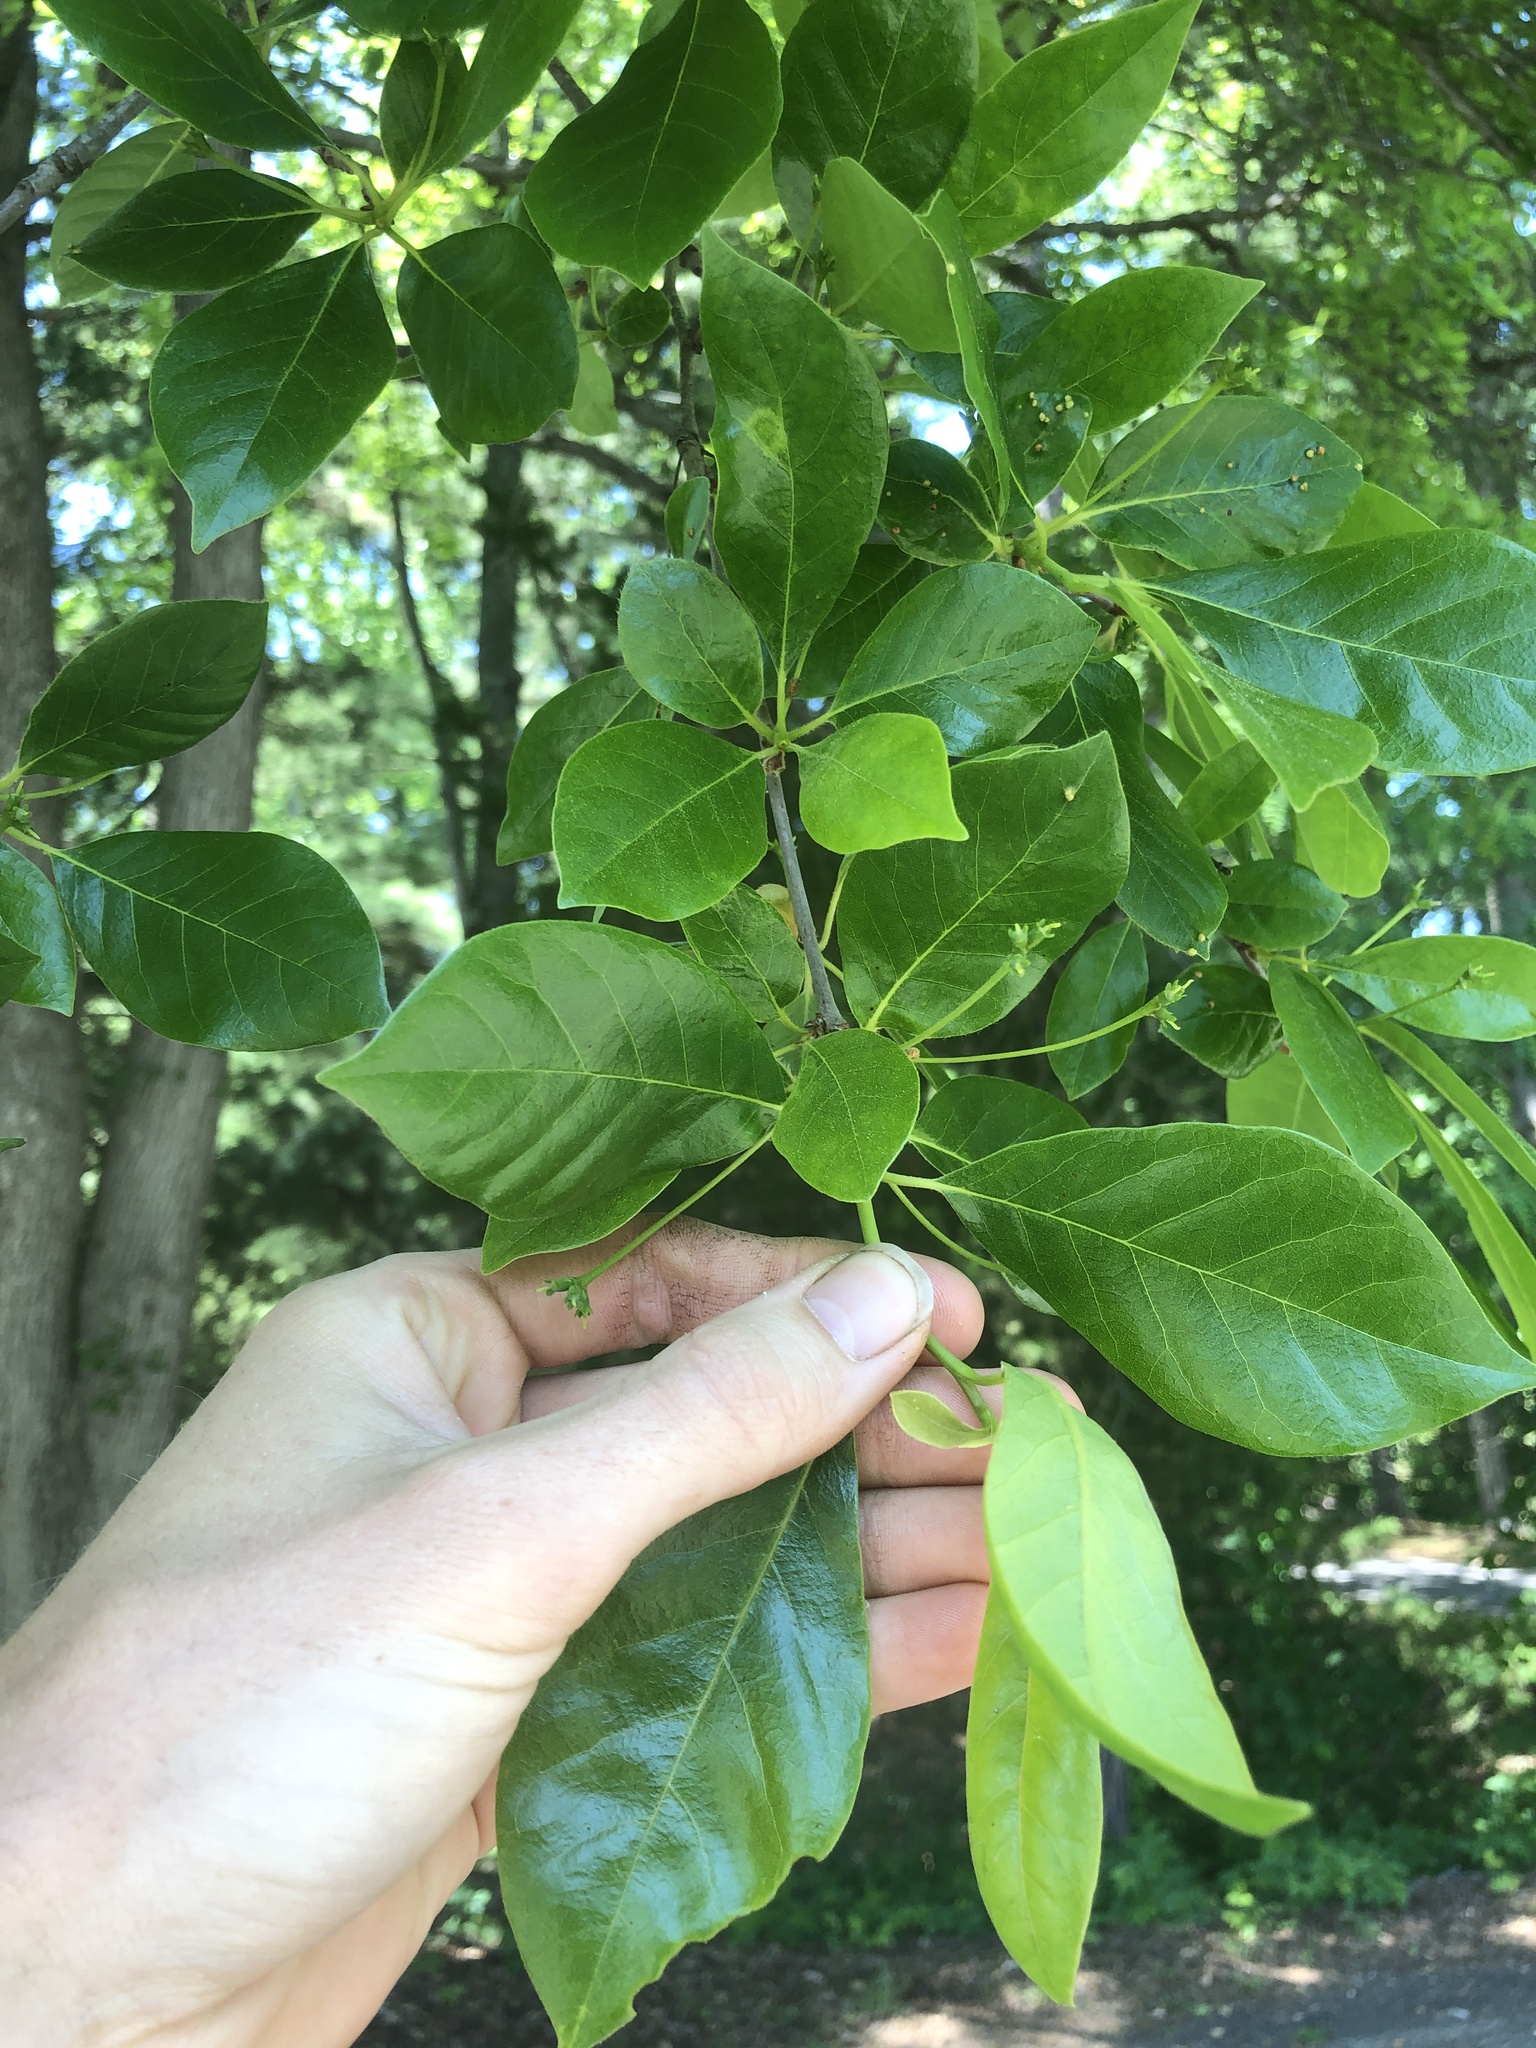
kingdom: Plantae
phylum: Tracheophyta
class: Magnoliopsida
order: Cornales
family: Nyssaceae
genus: Nyssa
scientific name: Nyssa sylvatica
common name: Black tupelo
